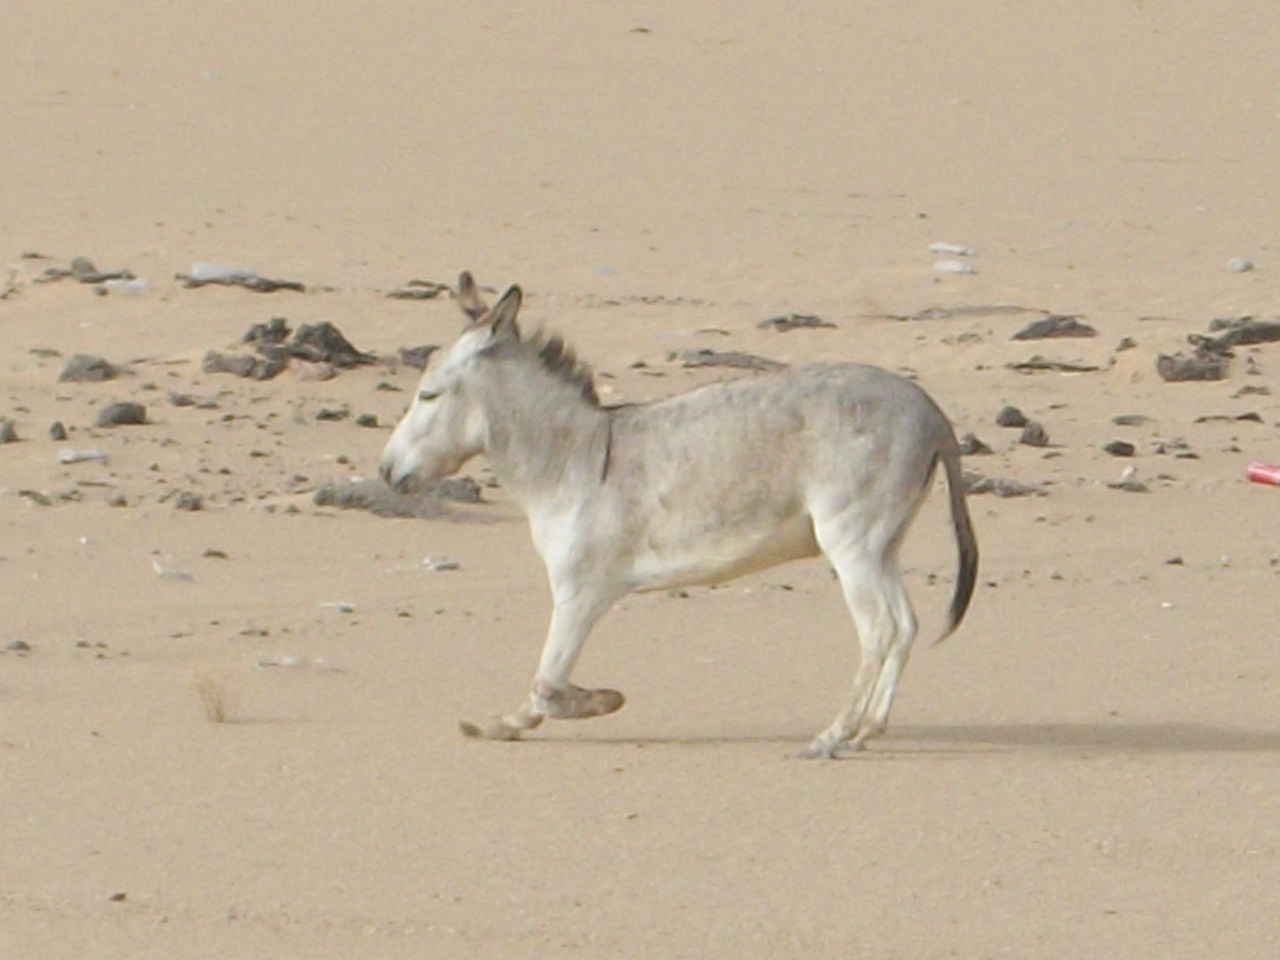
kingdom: Animalia
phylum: Chordata
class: Mammalia
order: Perissodactyla
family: Equidae
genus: Equus
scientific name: Equus asinus
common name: Ass
